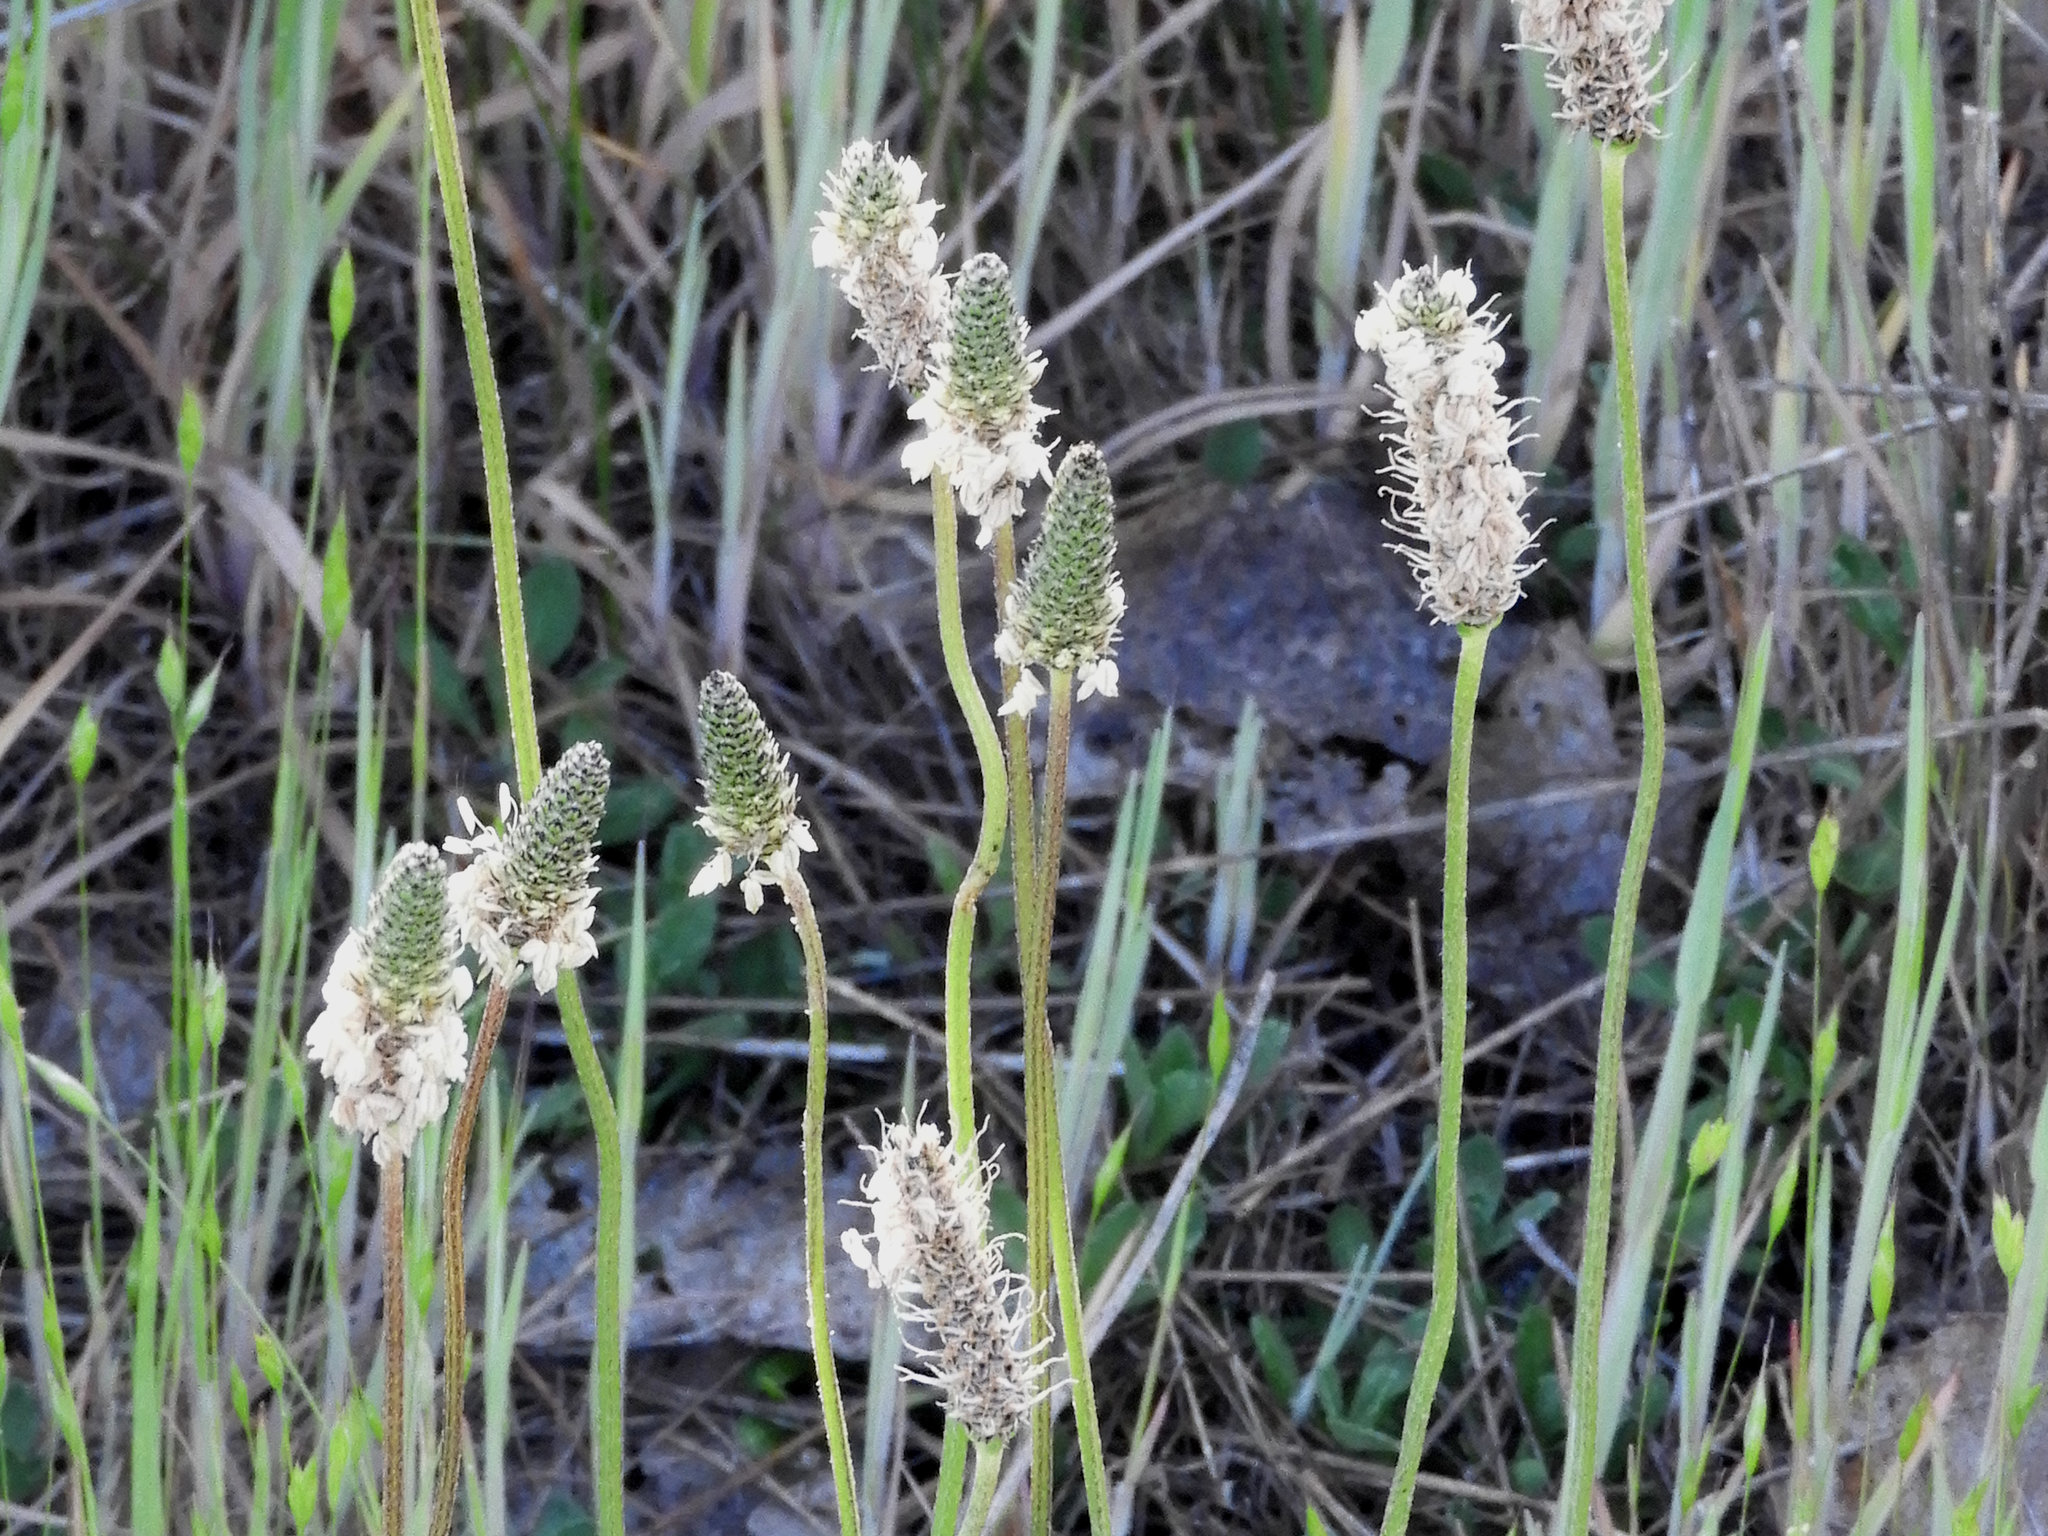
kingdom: Plantae
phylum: Tracheophyta
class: Magnoliopsida
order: Lamiales
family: Plantaginaceae
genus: Plantago
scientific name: Plantago lanceolata
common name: Ribwort plantain
